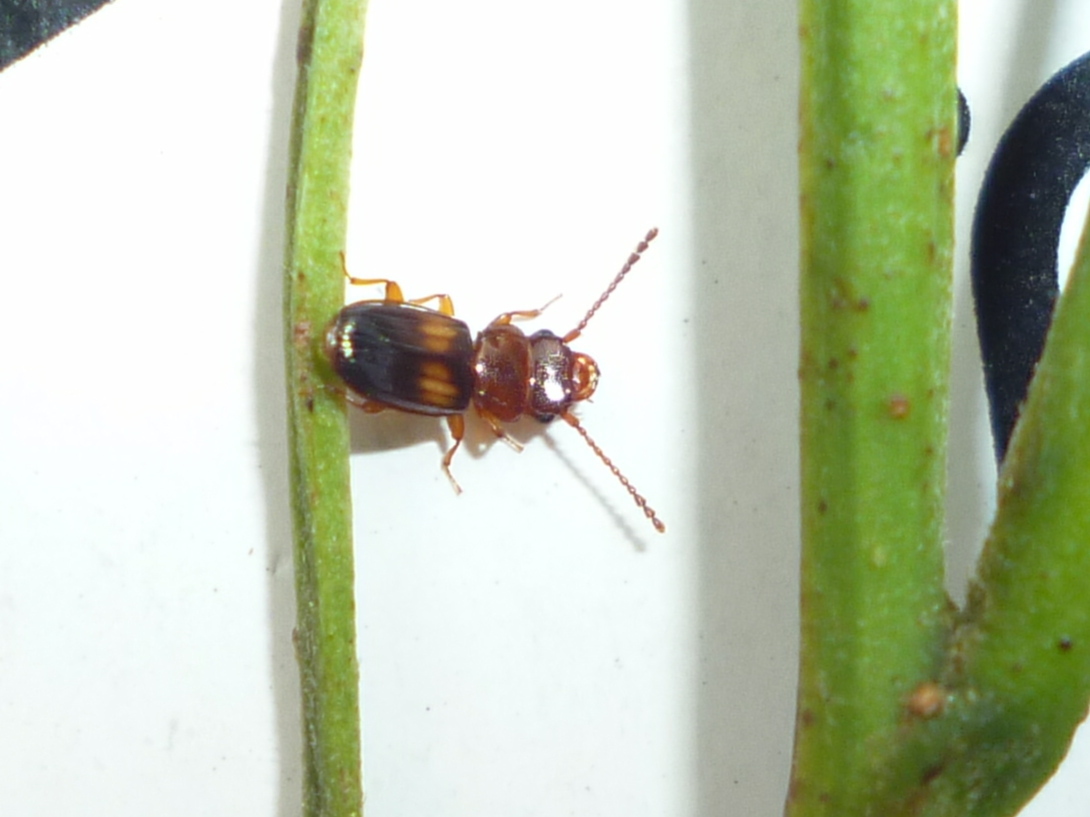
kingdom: Animalia
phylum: Arthropoda
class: Insecta
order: Coleoptera
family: Laemophloeidae
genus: Laemophloeus
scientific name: Laemophloeus megacephalus
